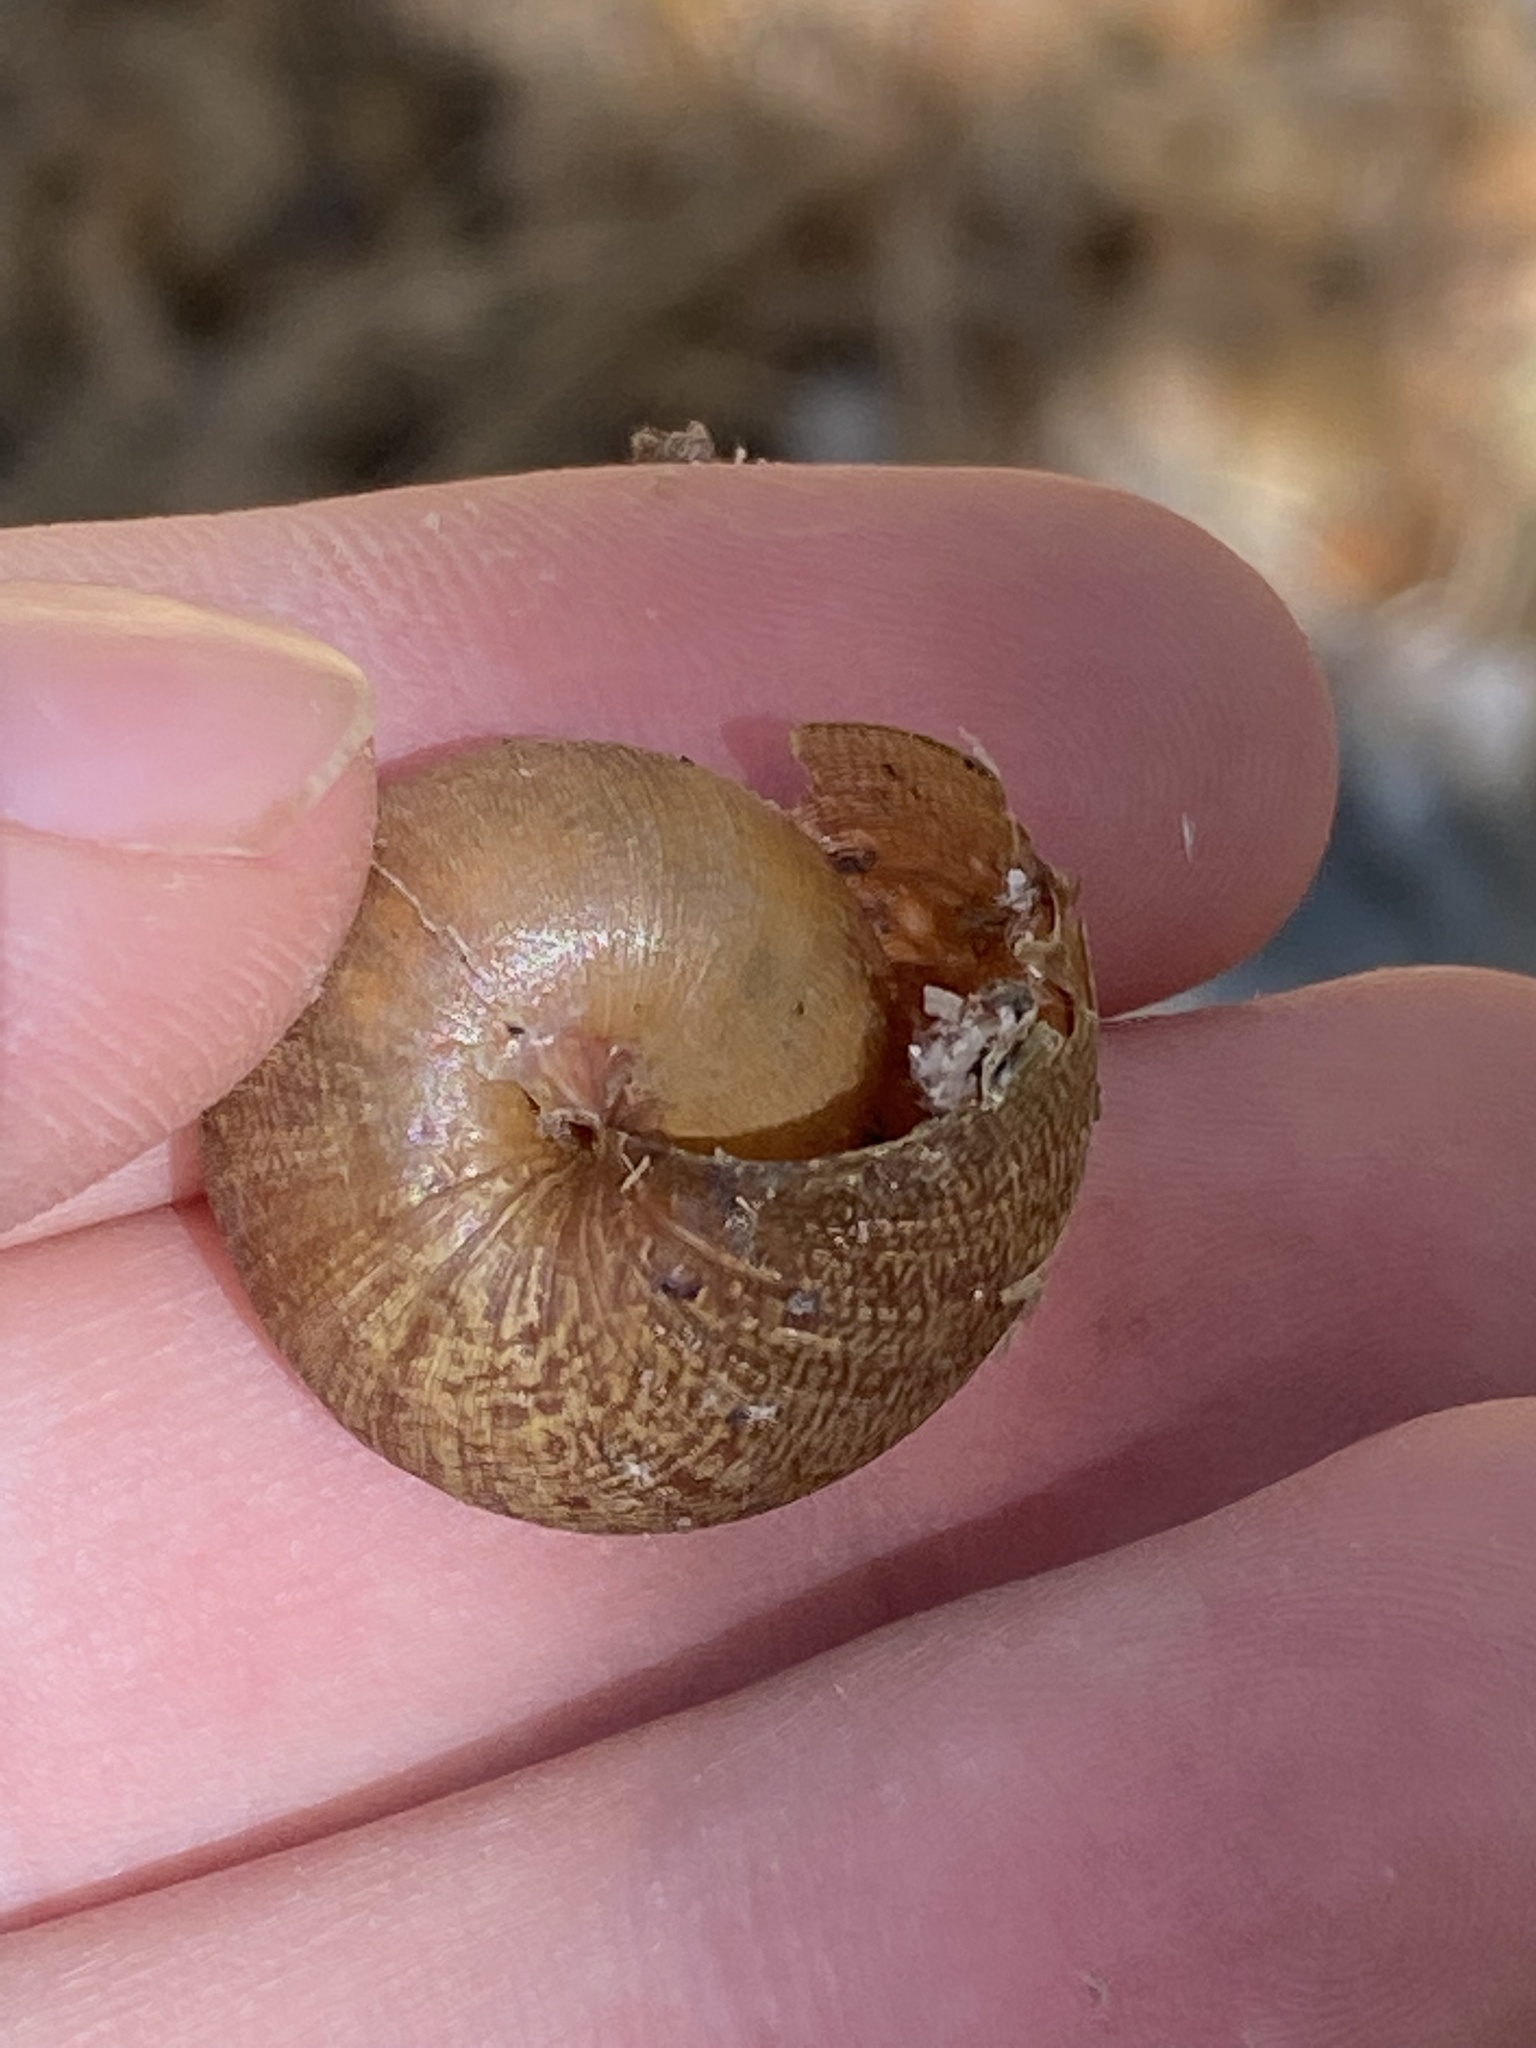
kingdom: Animalia
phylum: Mollusca
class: Gastropoda
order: Stylommatophora
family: Xanthonychidae
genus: Helminthoglypta
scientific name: Helminthoglypta nickliniana
